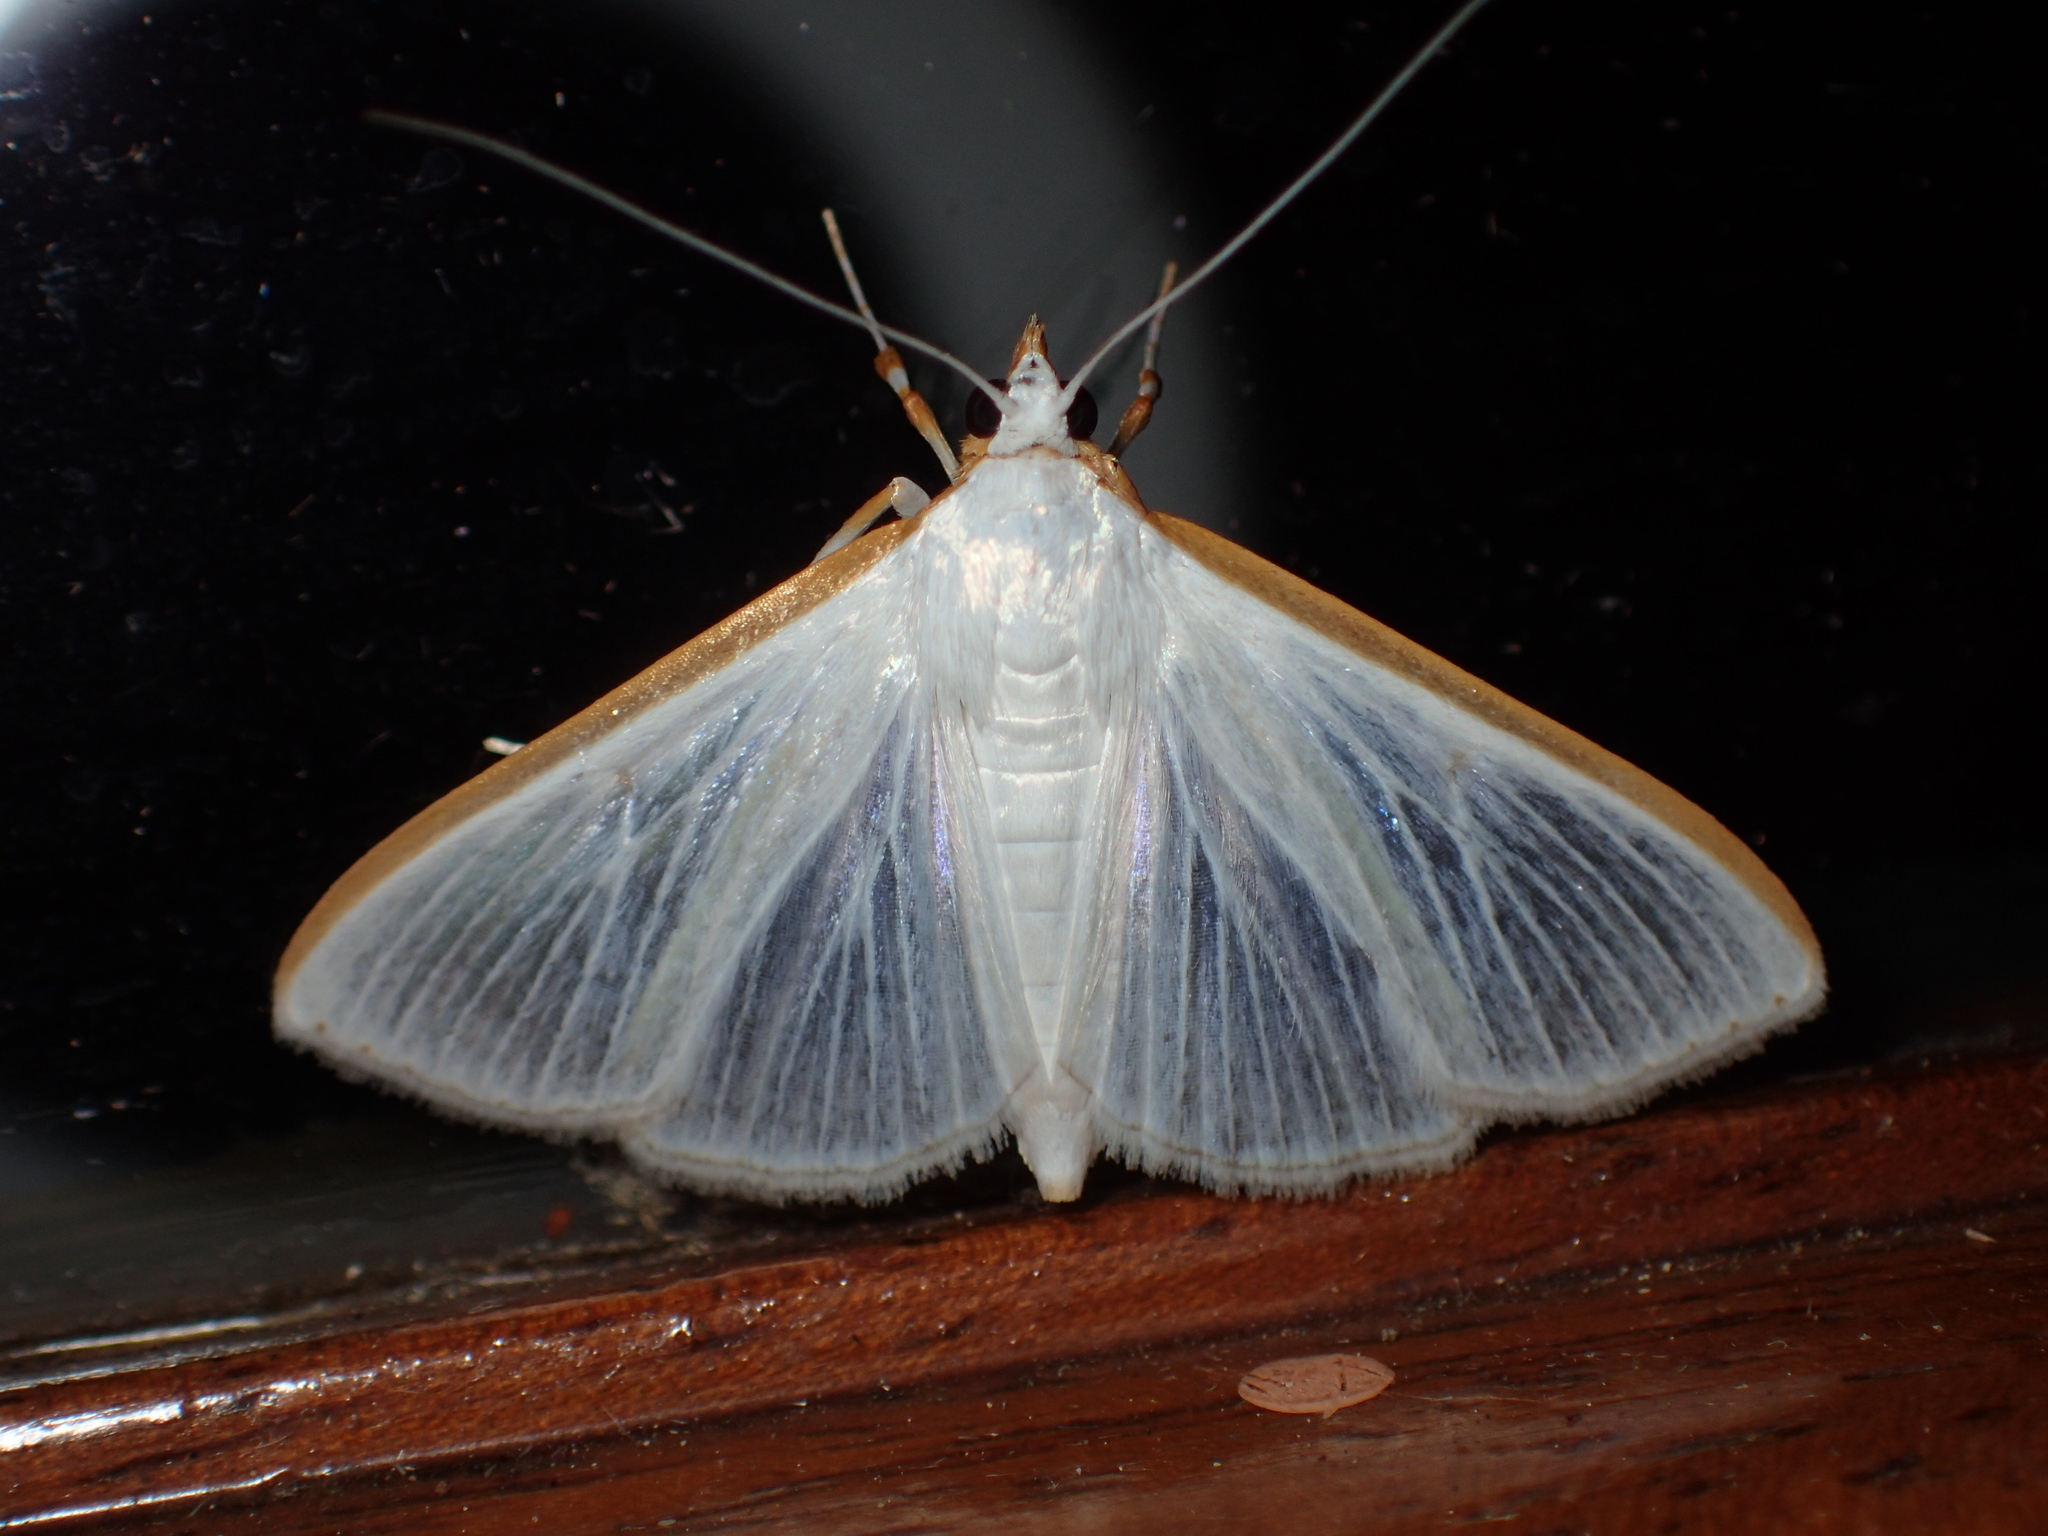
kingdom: Animalia
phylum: Arthropoda
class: Insecta
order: Lepidoptera
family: Crambidae
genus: Palpita
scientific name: Palpita kimballi
